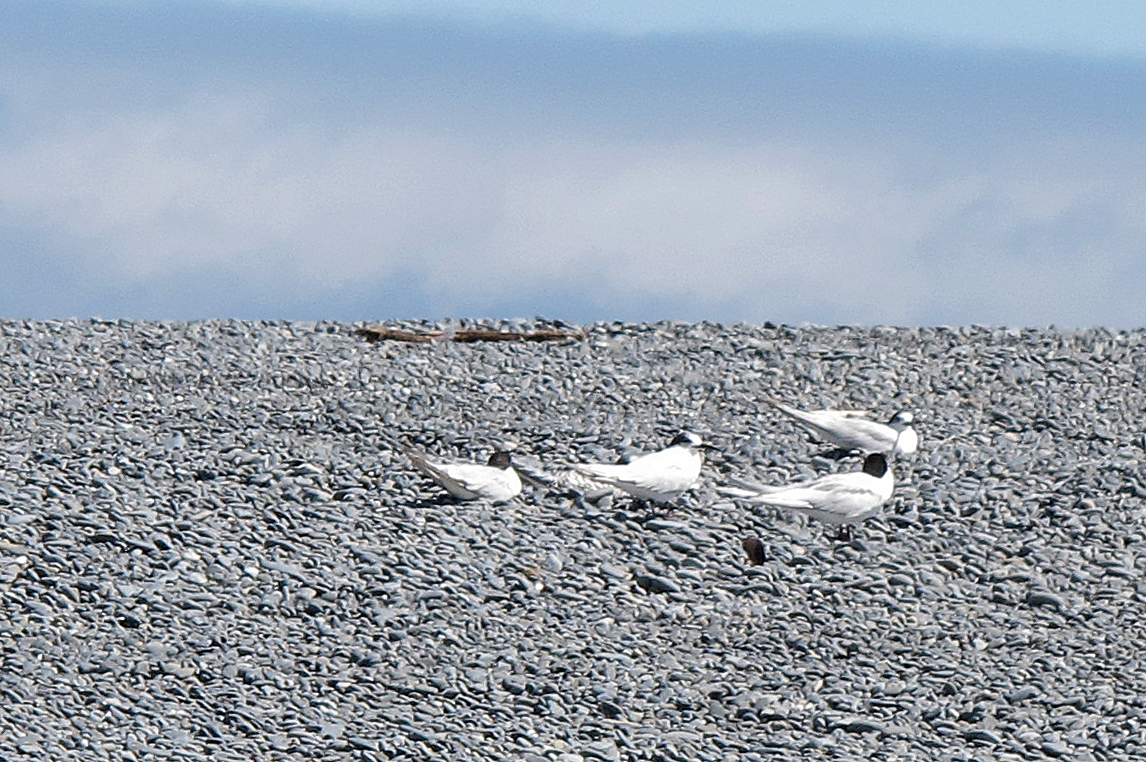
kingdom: Animalia
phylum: Chordata
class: Aves
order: Charadriiformes
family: Laridae
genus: Sterna
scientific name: Sterna striata
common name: White-fronted tern
